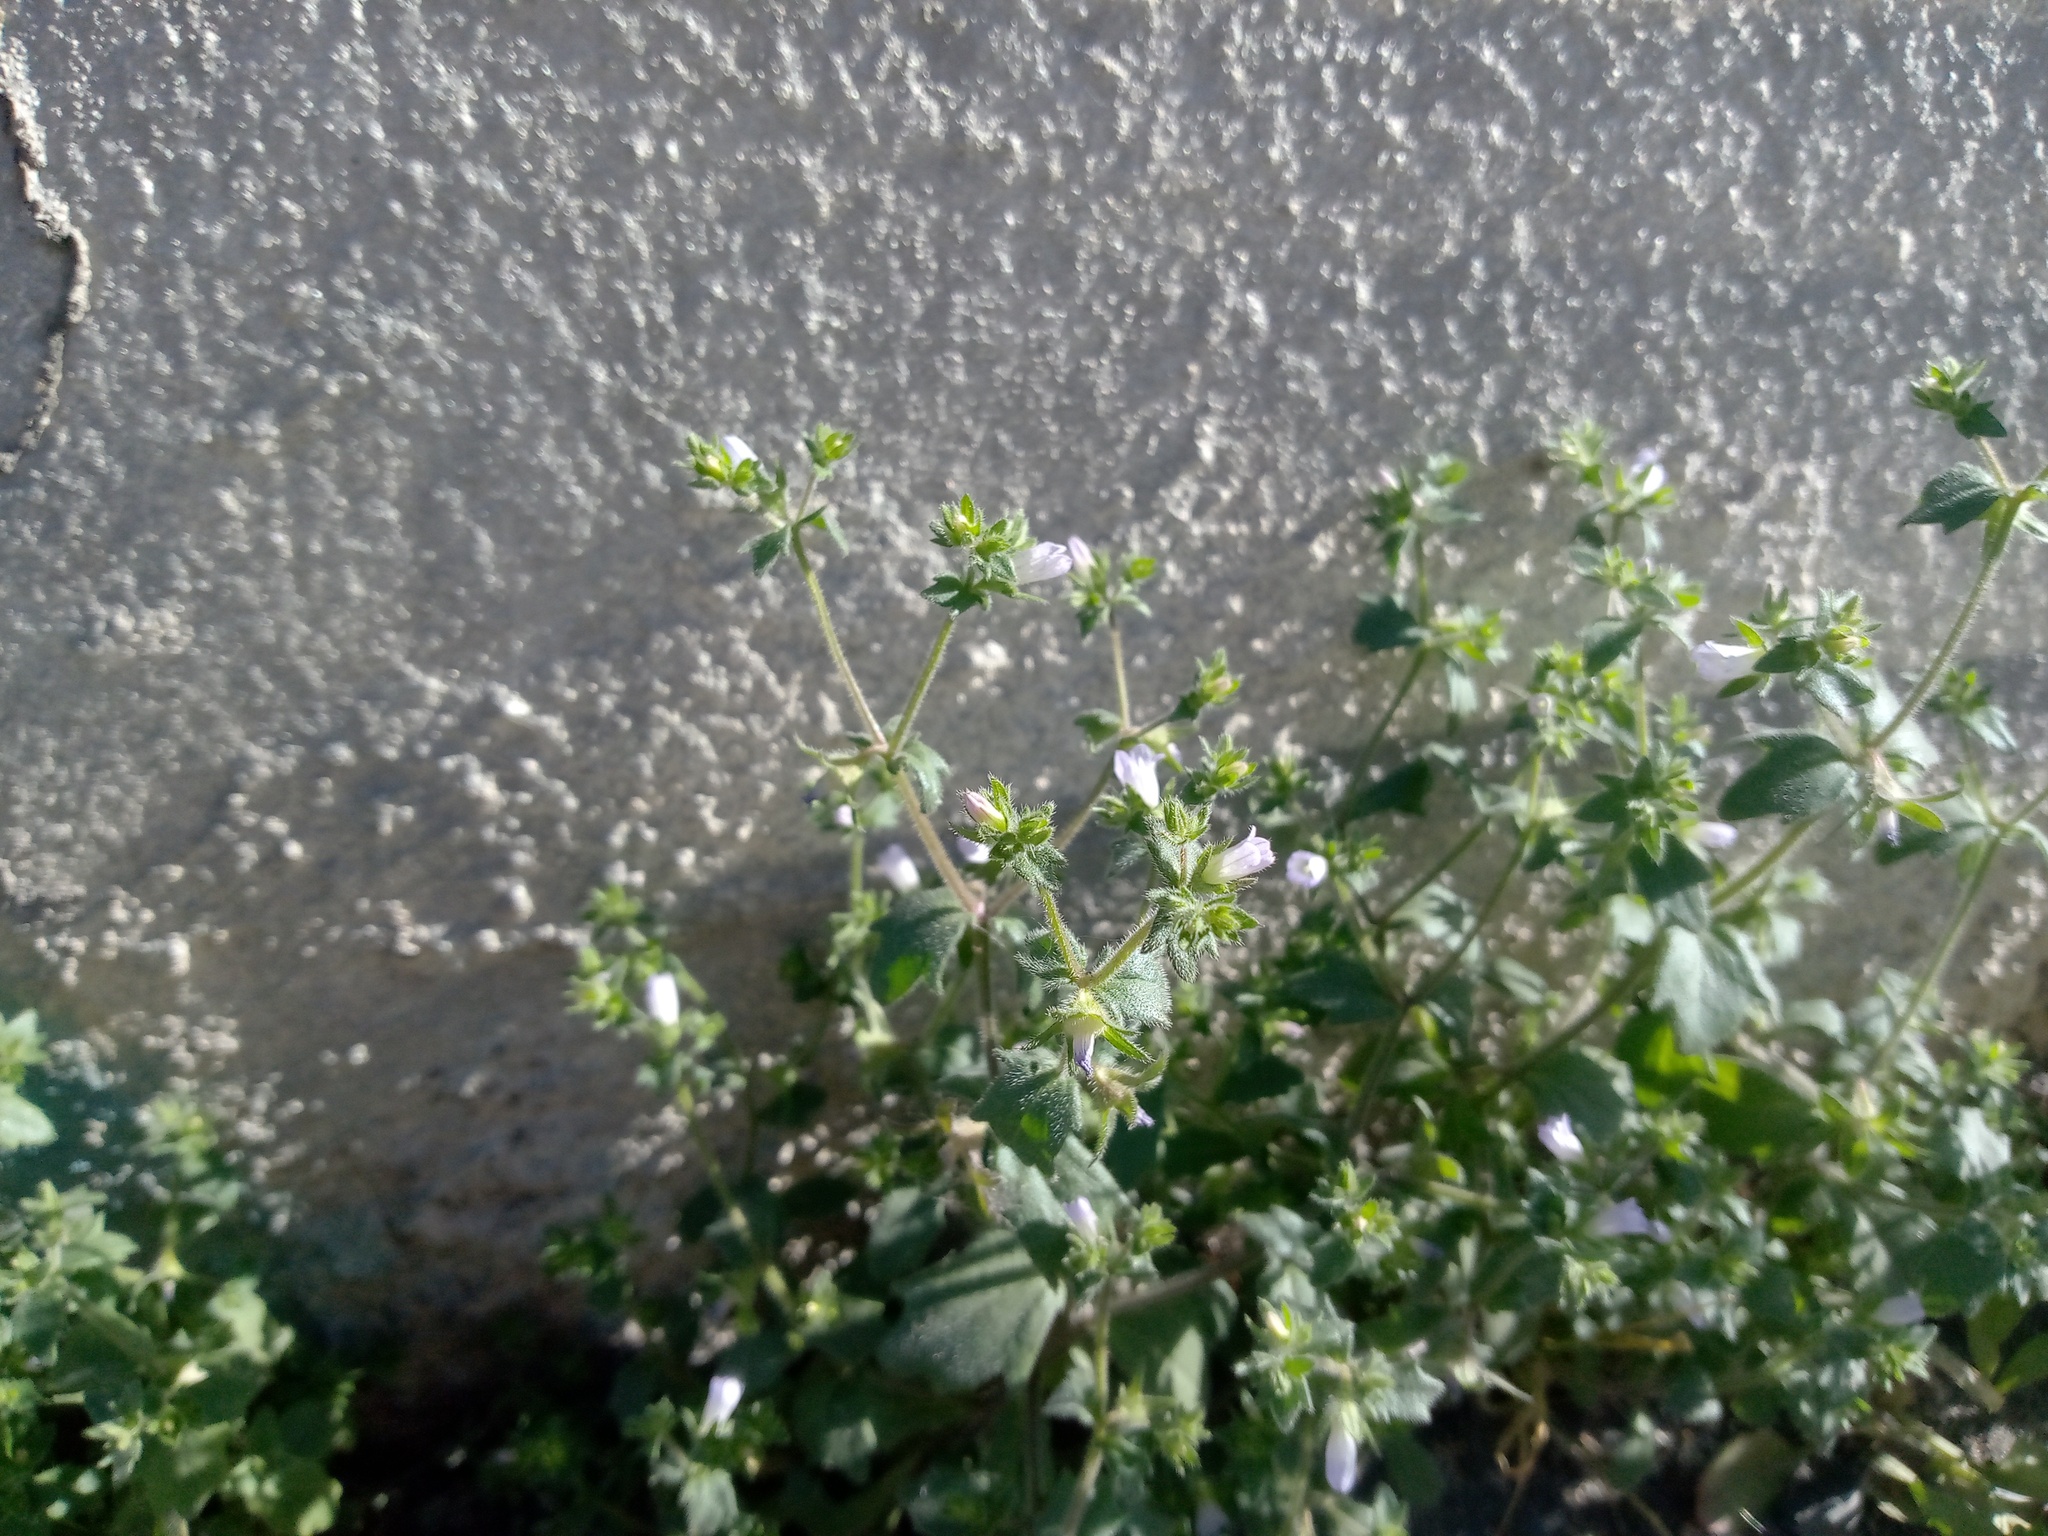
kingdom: Plantae
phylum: Tracheophyta
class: Magnoliopsida
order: Asterales
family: Campanulaceae
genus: Campanula
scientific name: Campanula erinus
